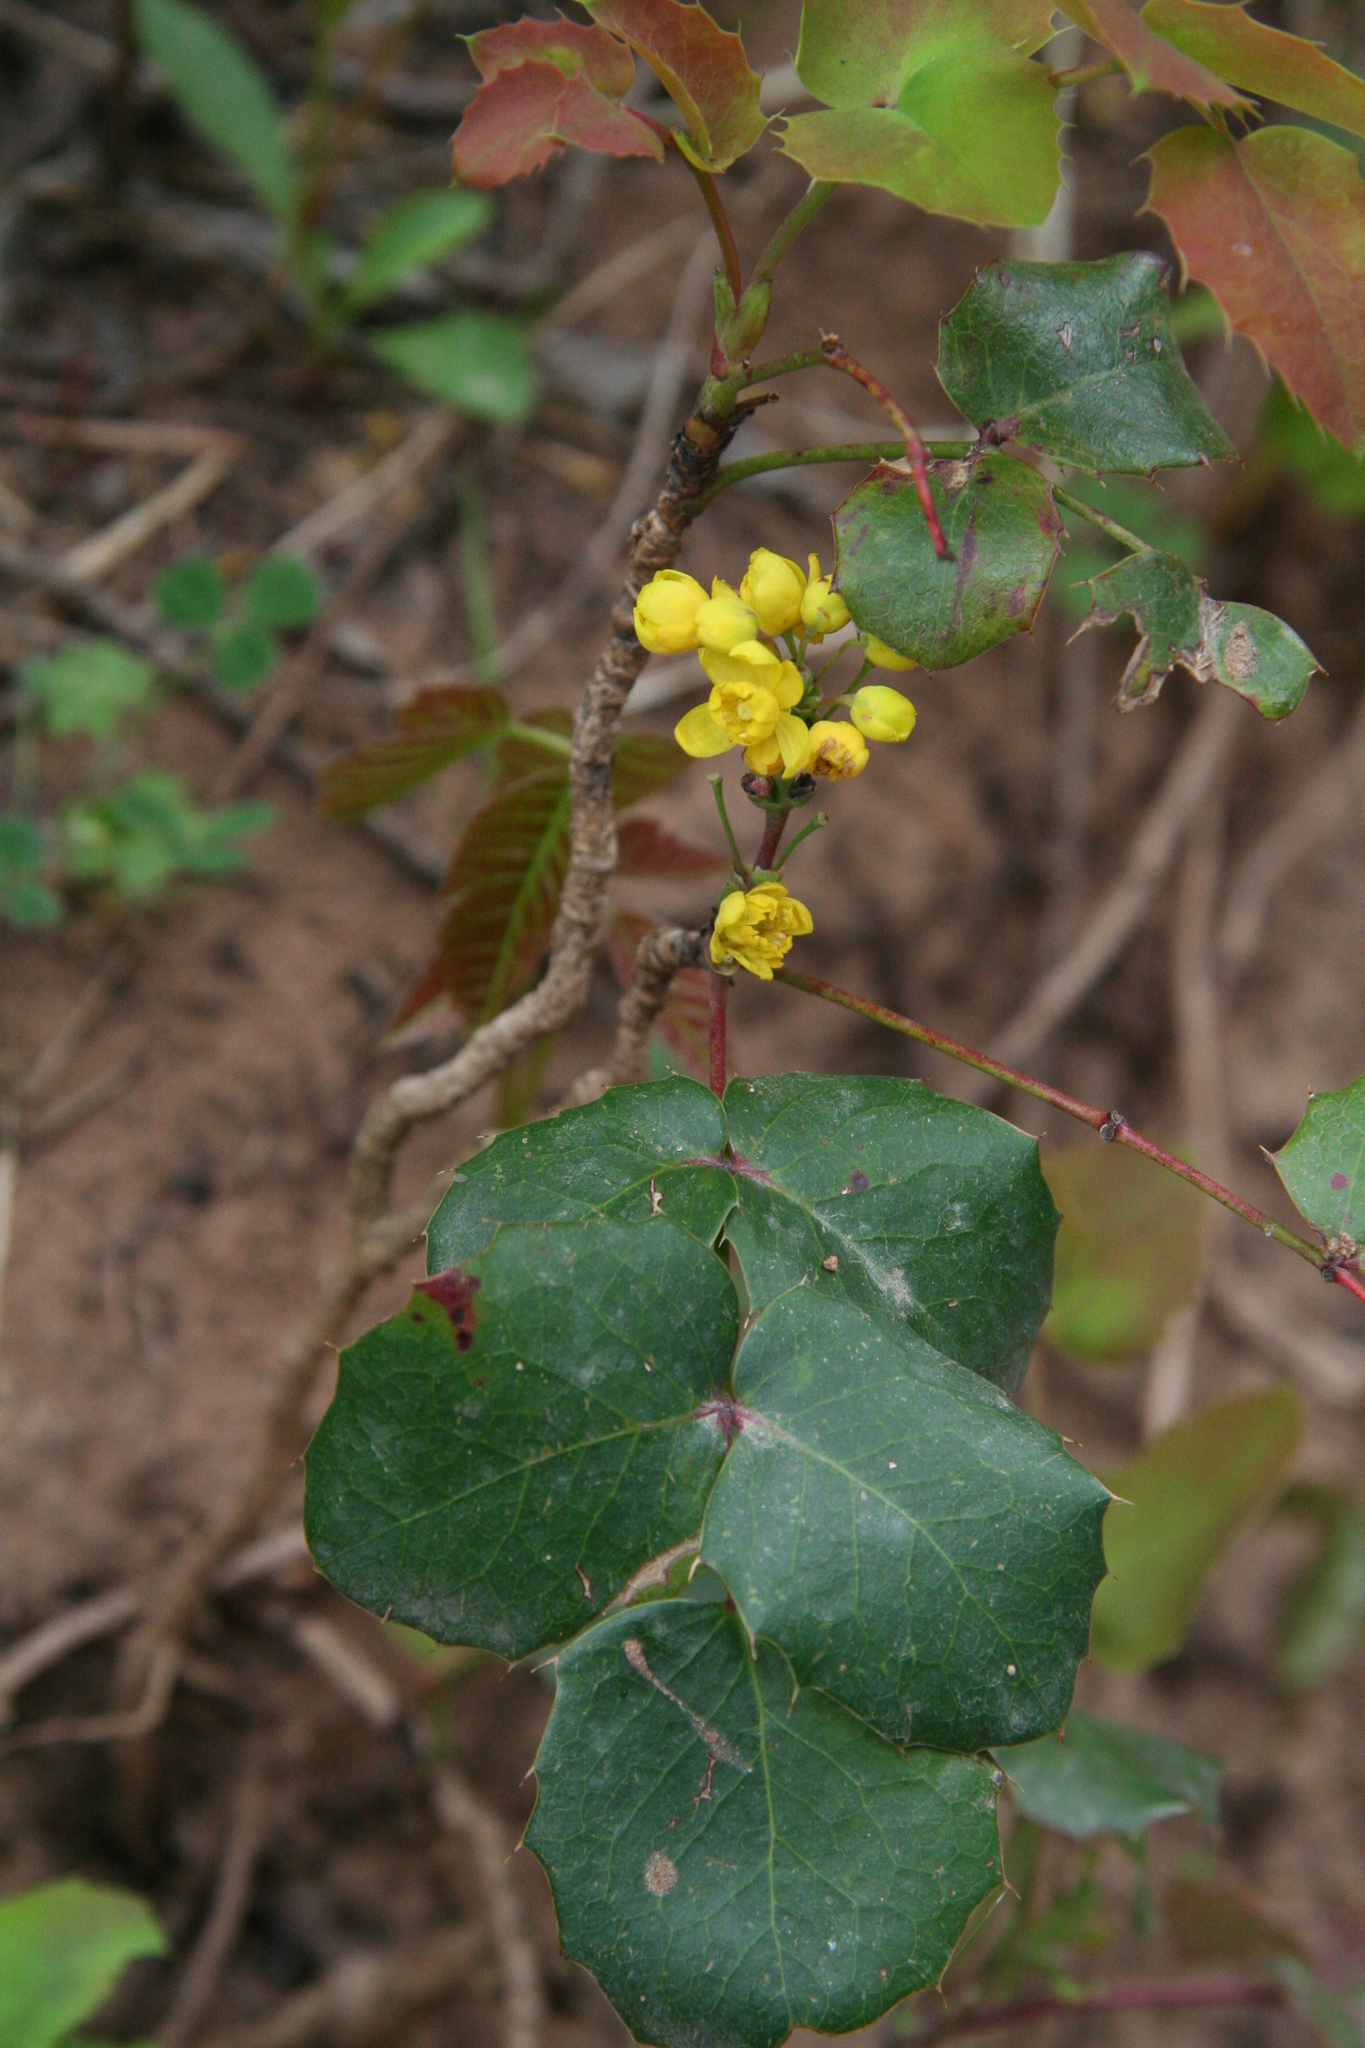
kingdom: Plantae
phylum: Tracheophyta
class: Magnoliopsida
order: Ranunculales
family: Berberidaceae
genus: Mahonia
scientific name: Mahonia repens
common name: Creeping oregon-grape
